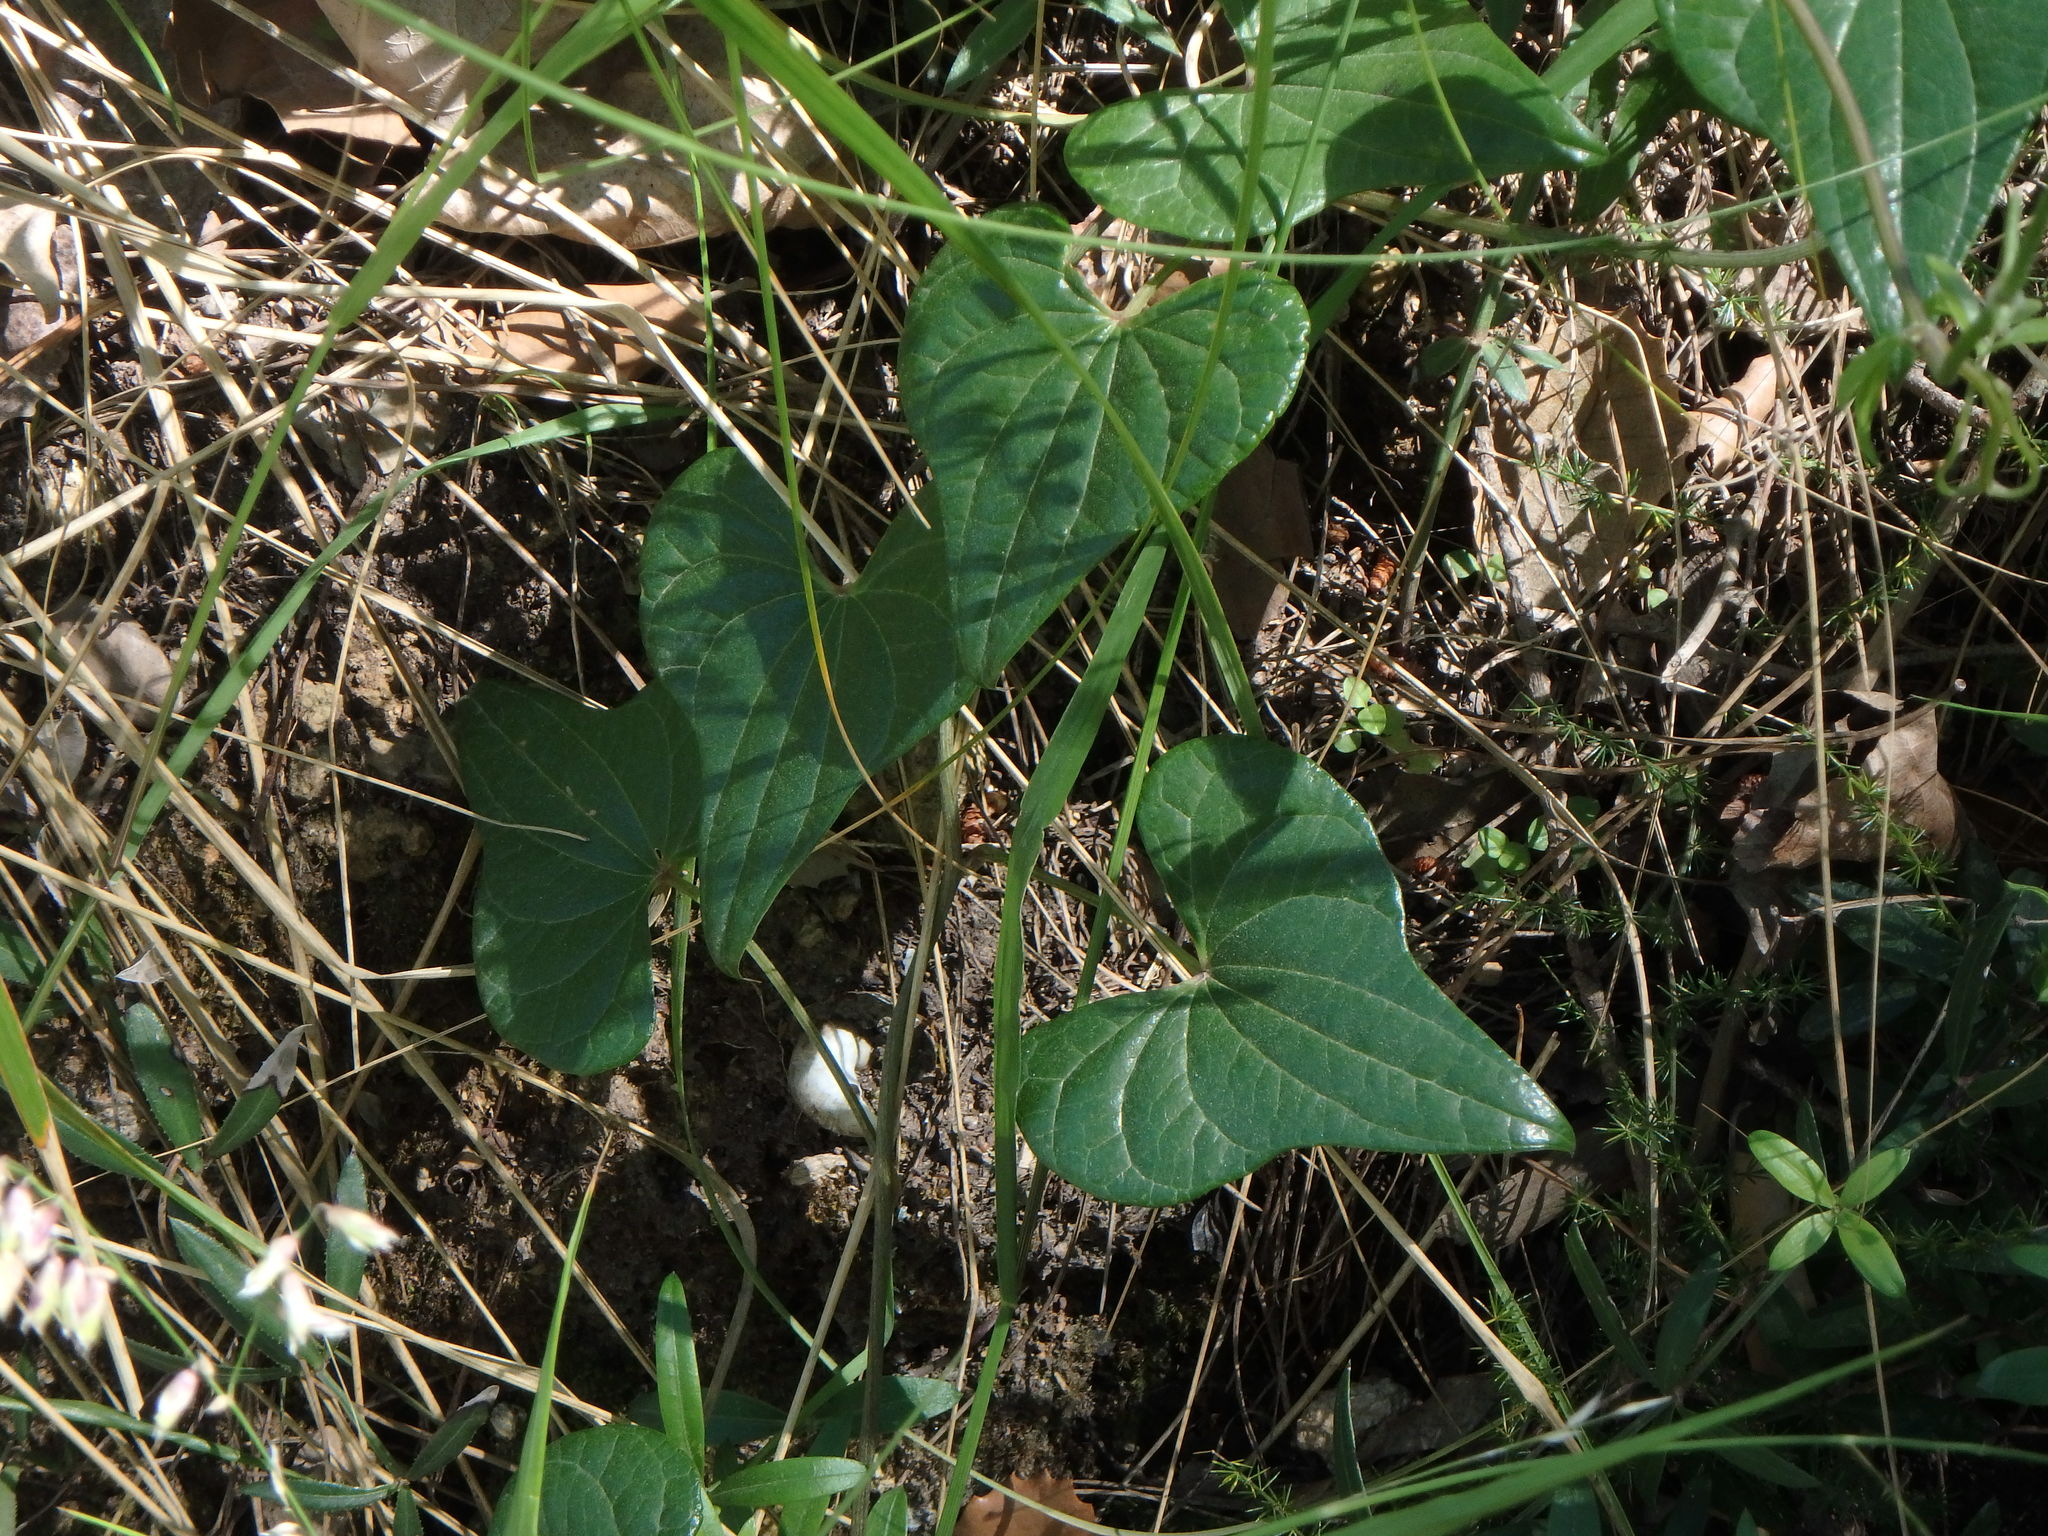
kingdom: Plantae
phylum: Tracheophyta
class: Liliopsida
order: Dioscoreales
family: Dioscoreaceae
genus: Dioscorea
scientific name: Dioscorea communis
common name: Black-bindweed
